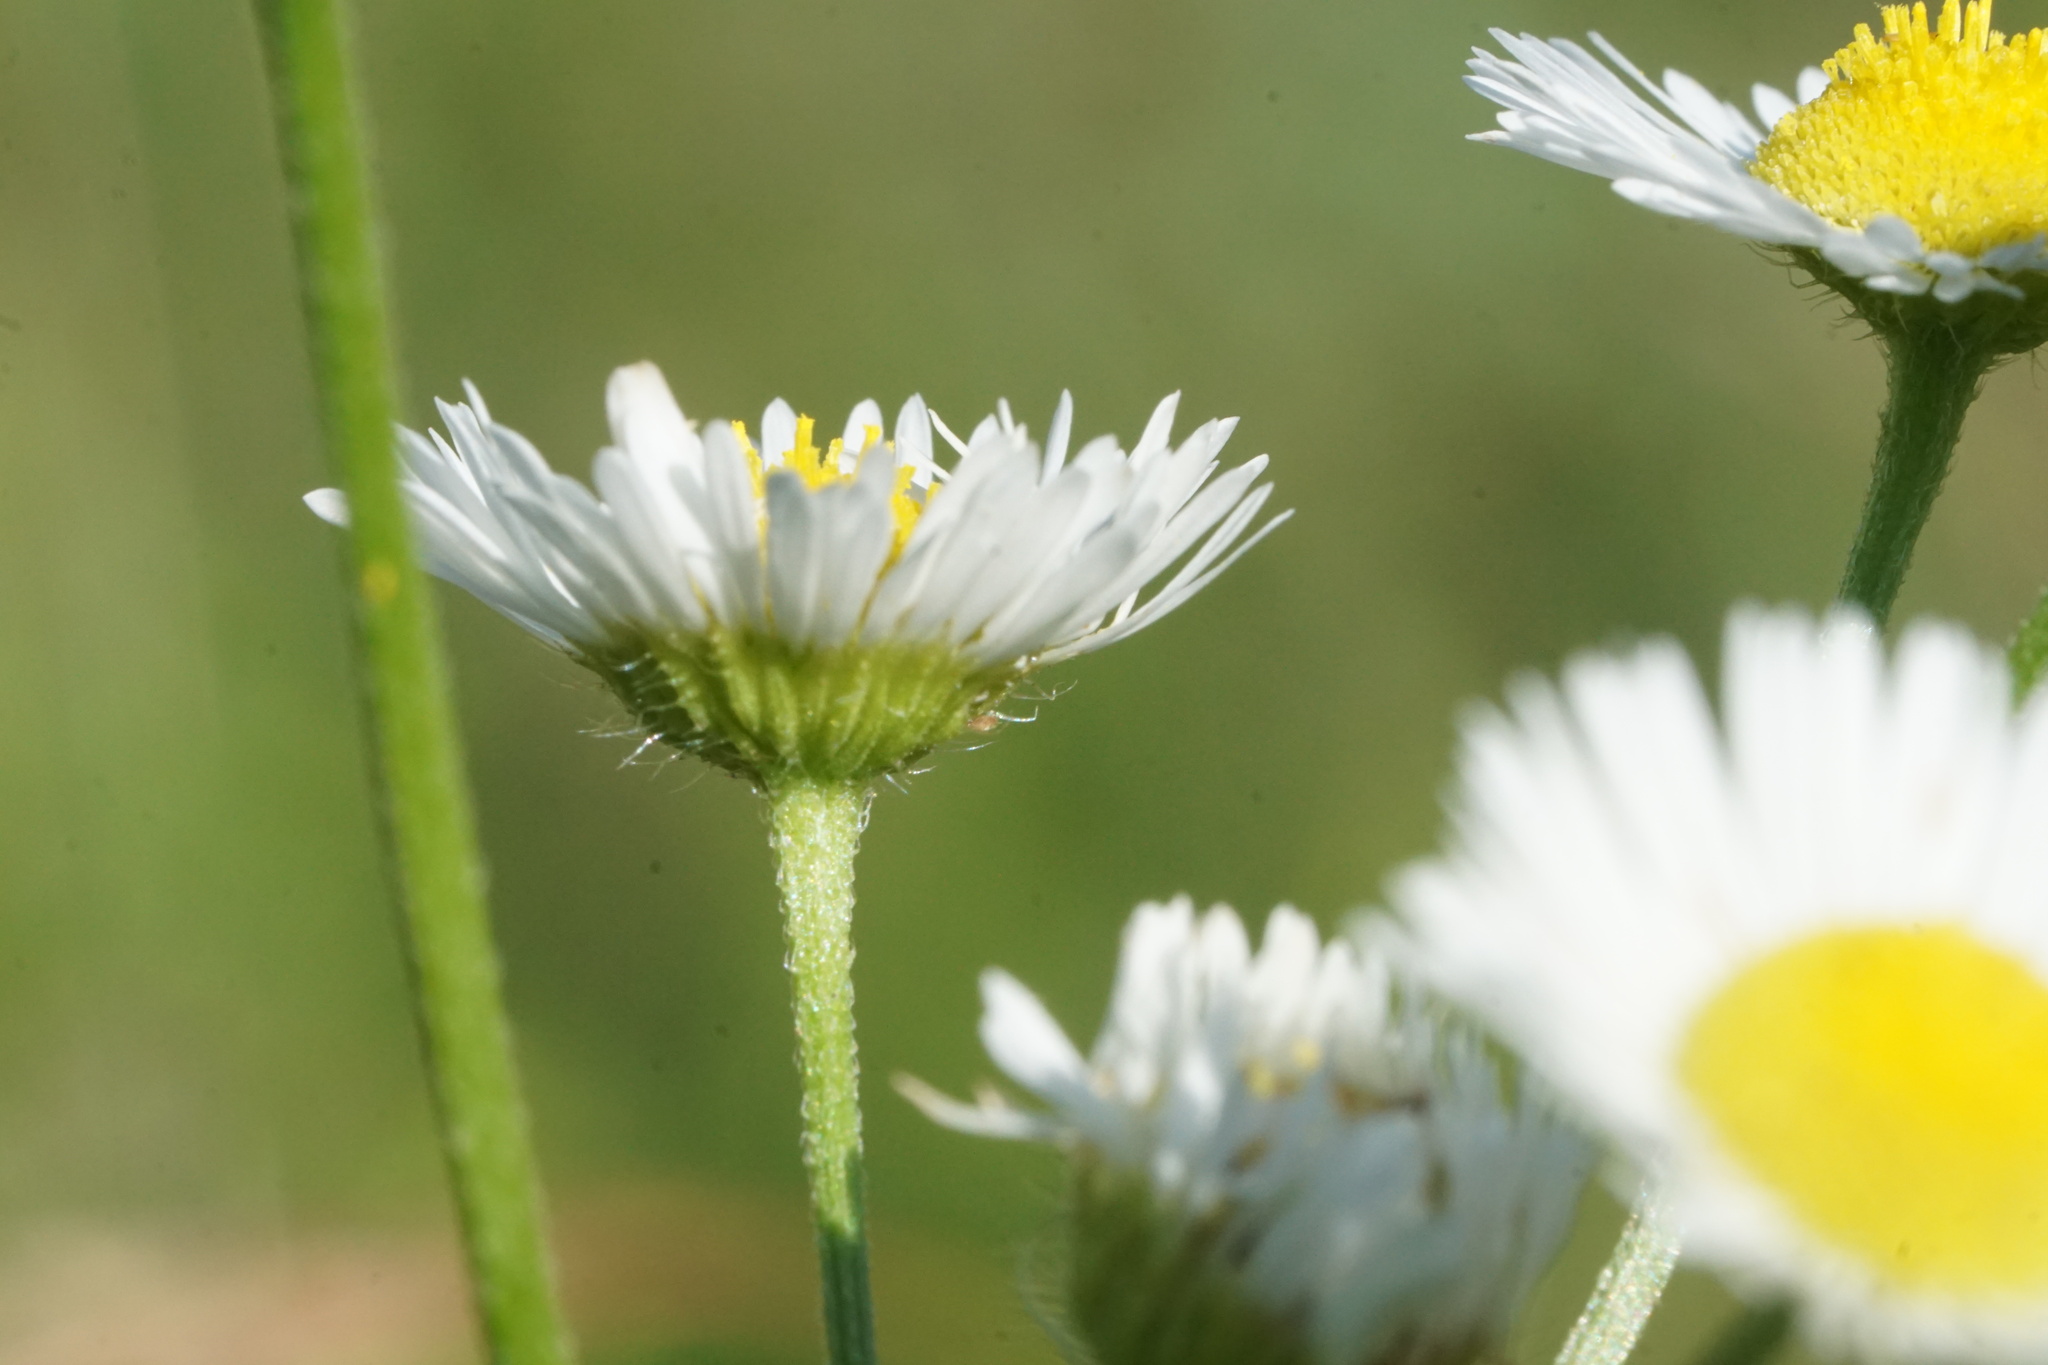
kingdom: Plantae
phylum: Tracheophyta
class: Magnoliopsida
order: Asterales
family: Asteraceae
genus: Erigeron
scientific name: Erigeron strigosus
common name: Common eastern fleabane
